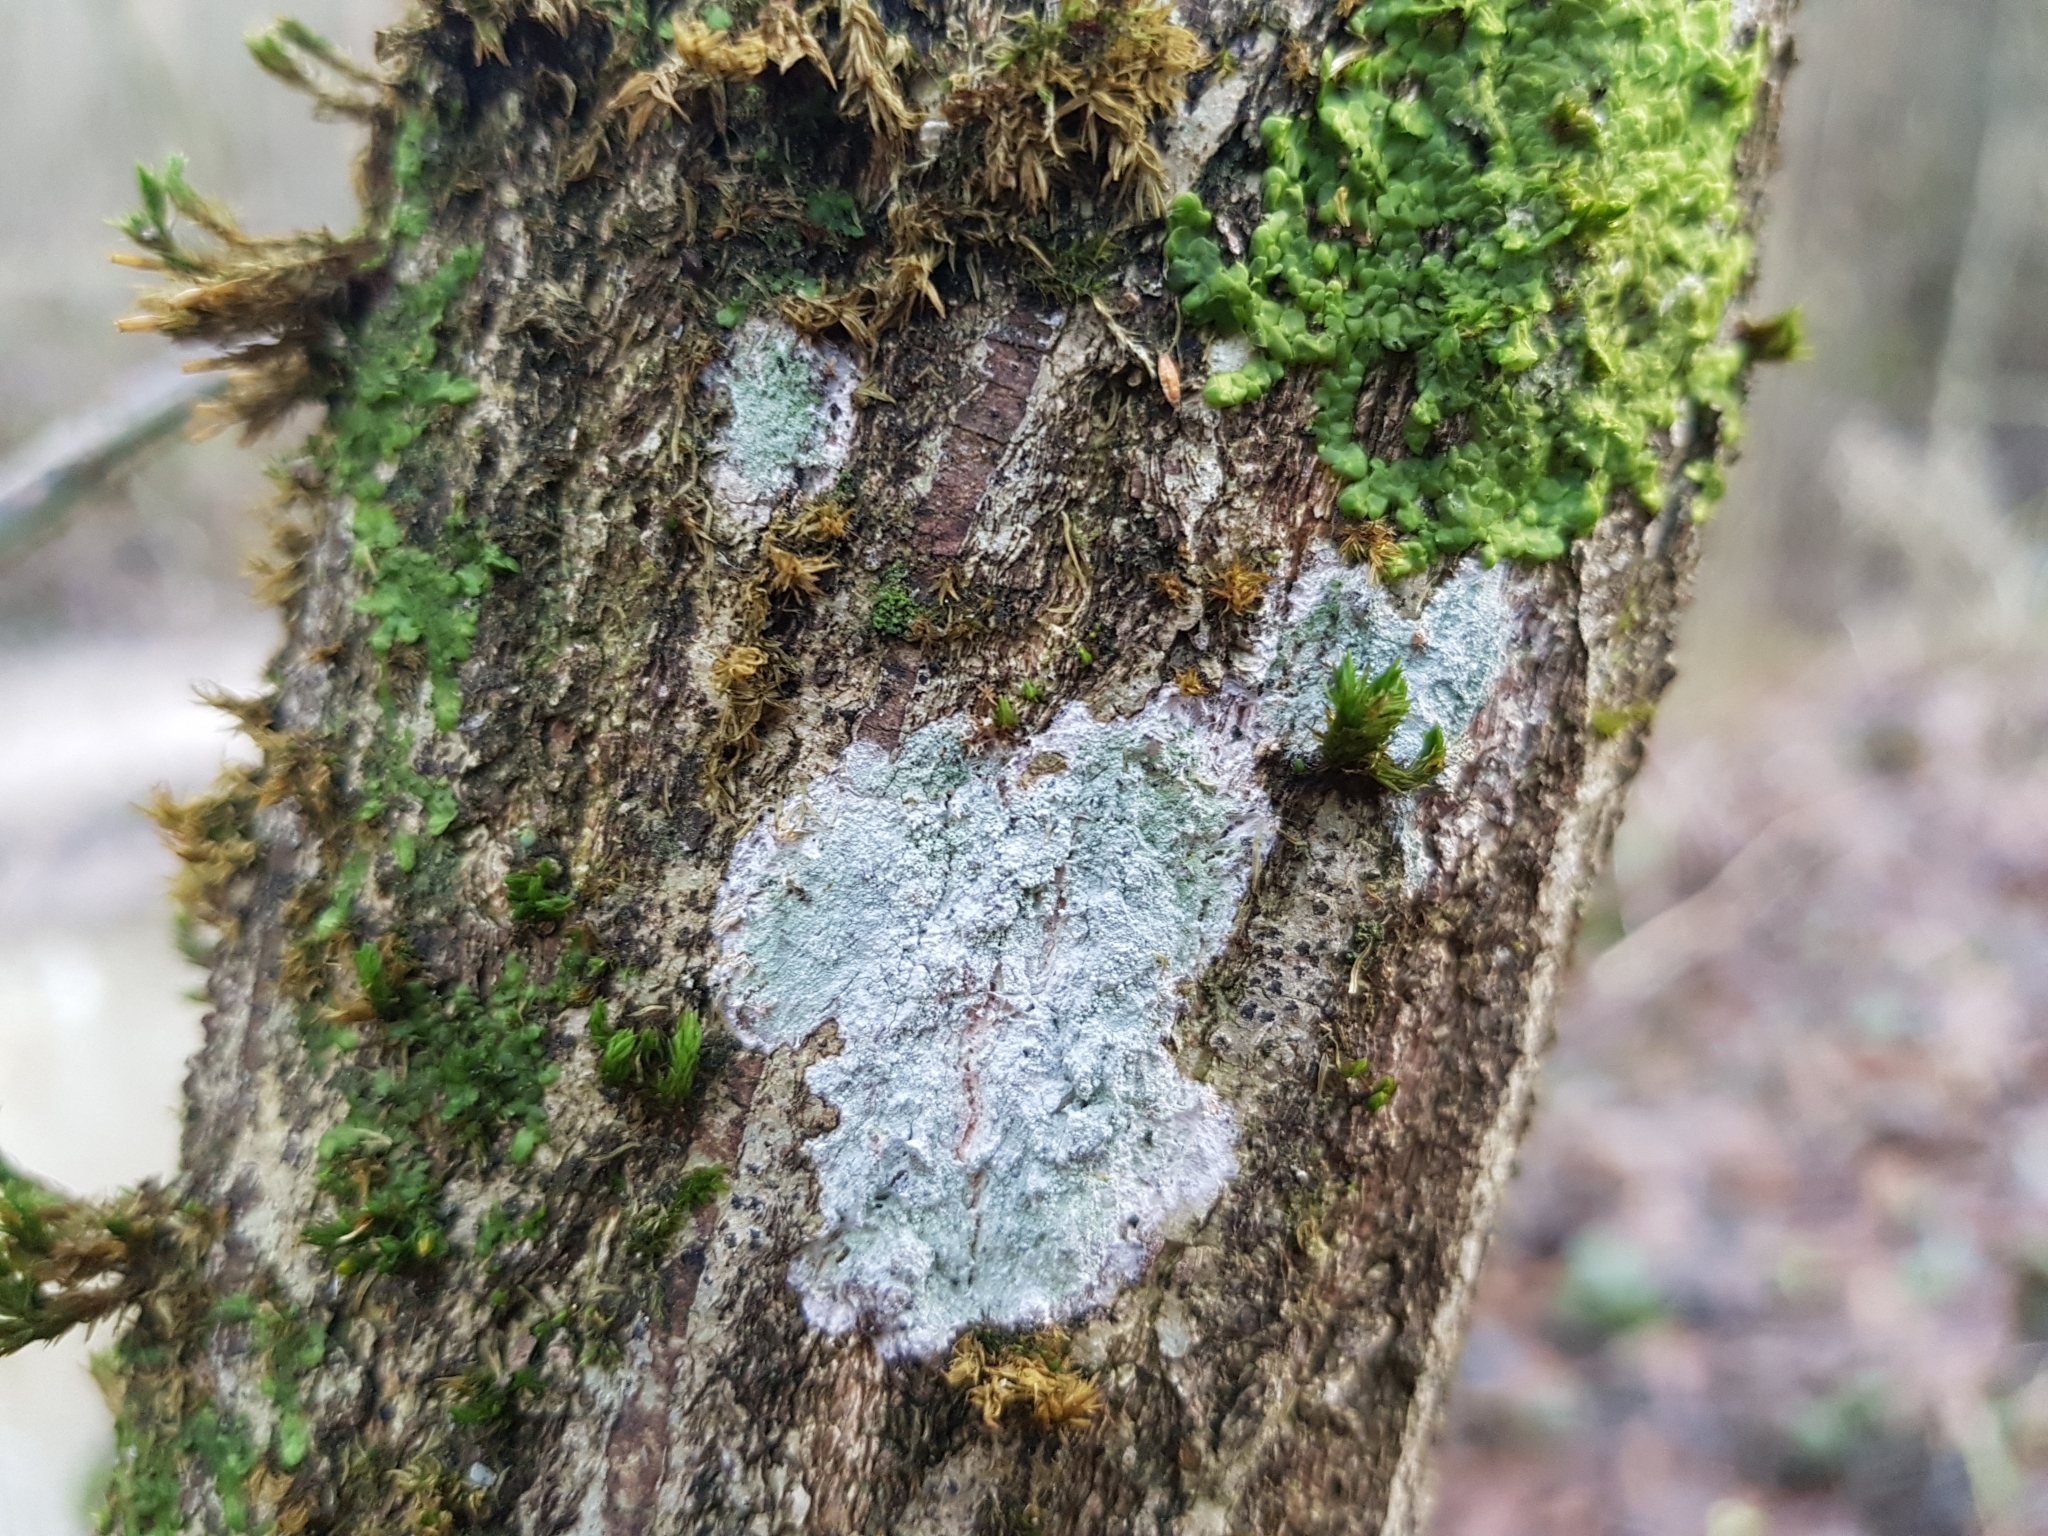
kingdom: Fungi
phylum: Ascomycota
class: Lecanoromycetes
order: Ostropales
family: Phlyctidaceae
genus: Phlyctis
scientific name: Phlyctis argena
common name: Whitewash lichen
